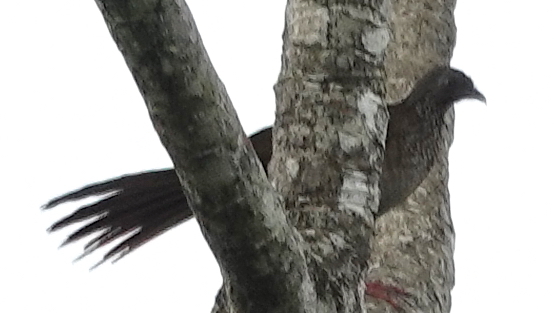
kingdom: Animalia
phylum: Chordata
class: Aves
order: Galliformes
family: Cracidae
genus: Ortalis
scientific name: Ortalis guttata
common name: Speckled chachalaca
